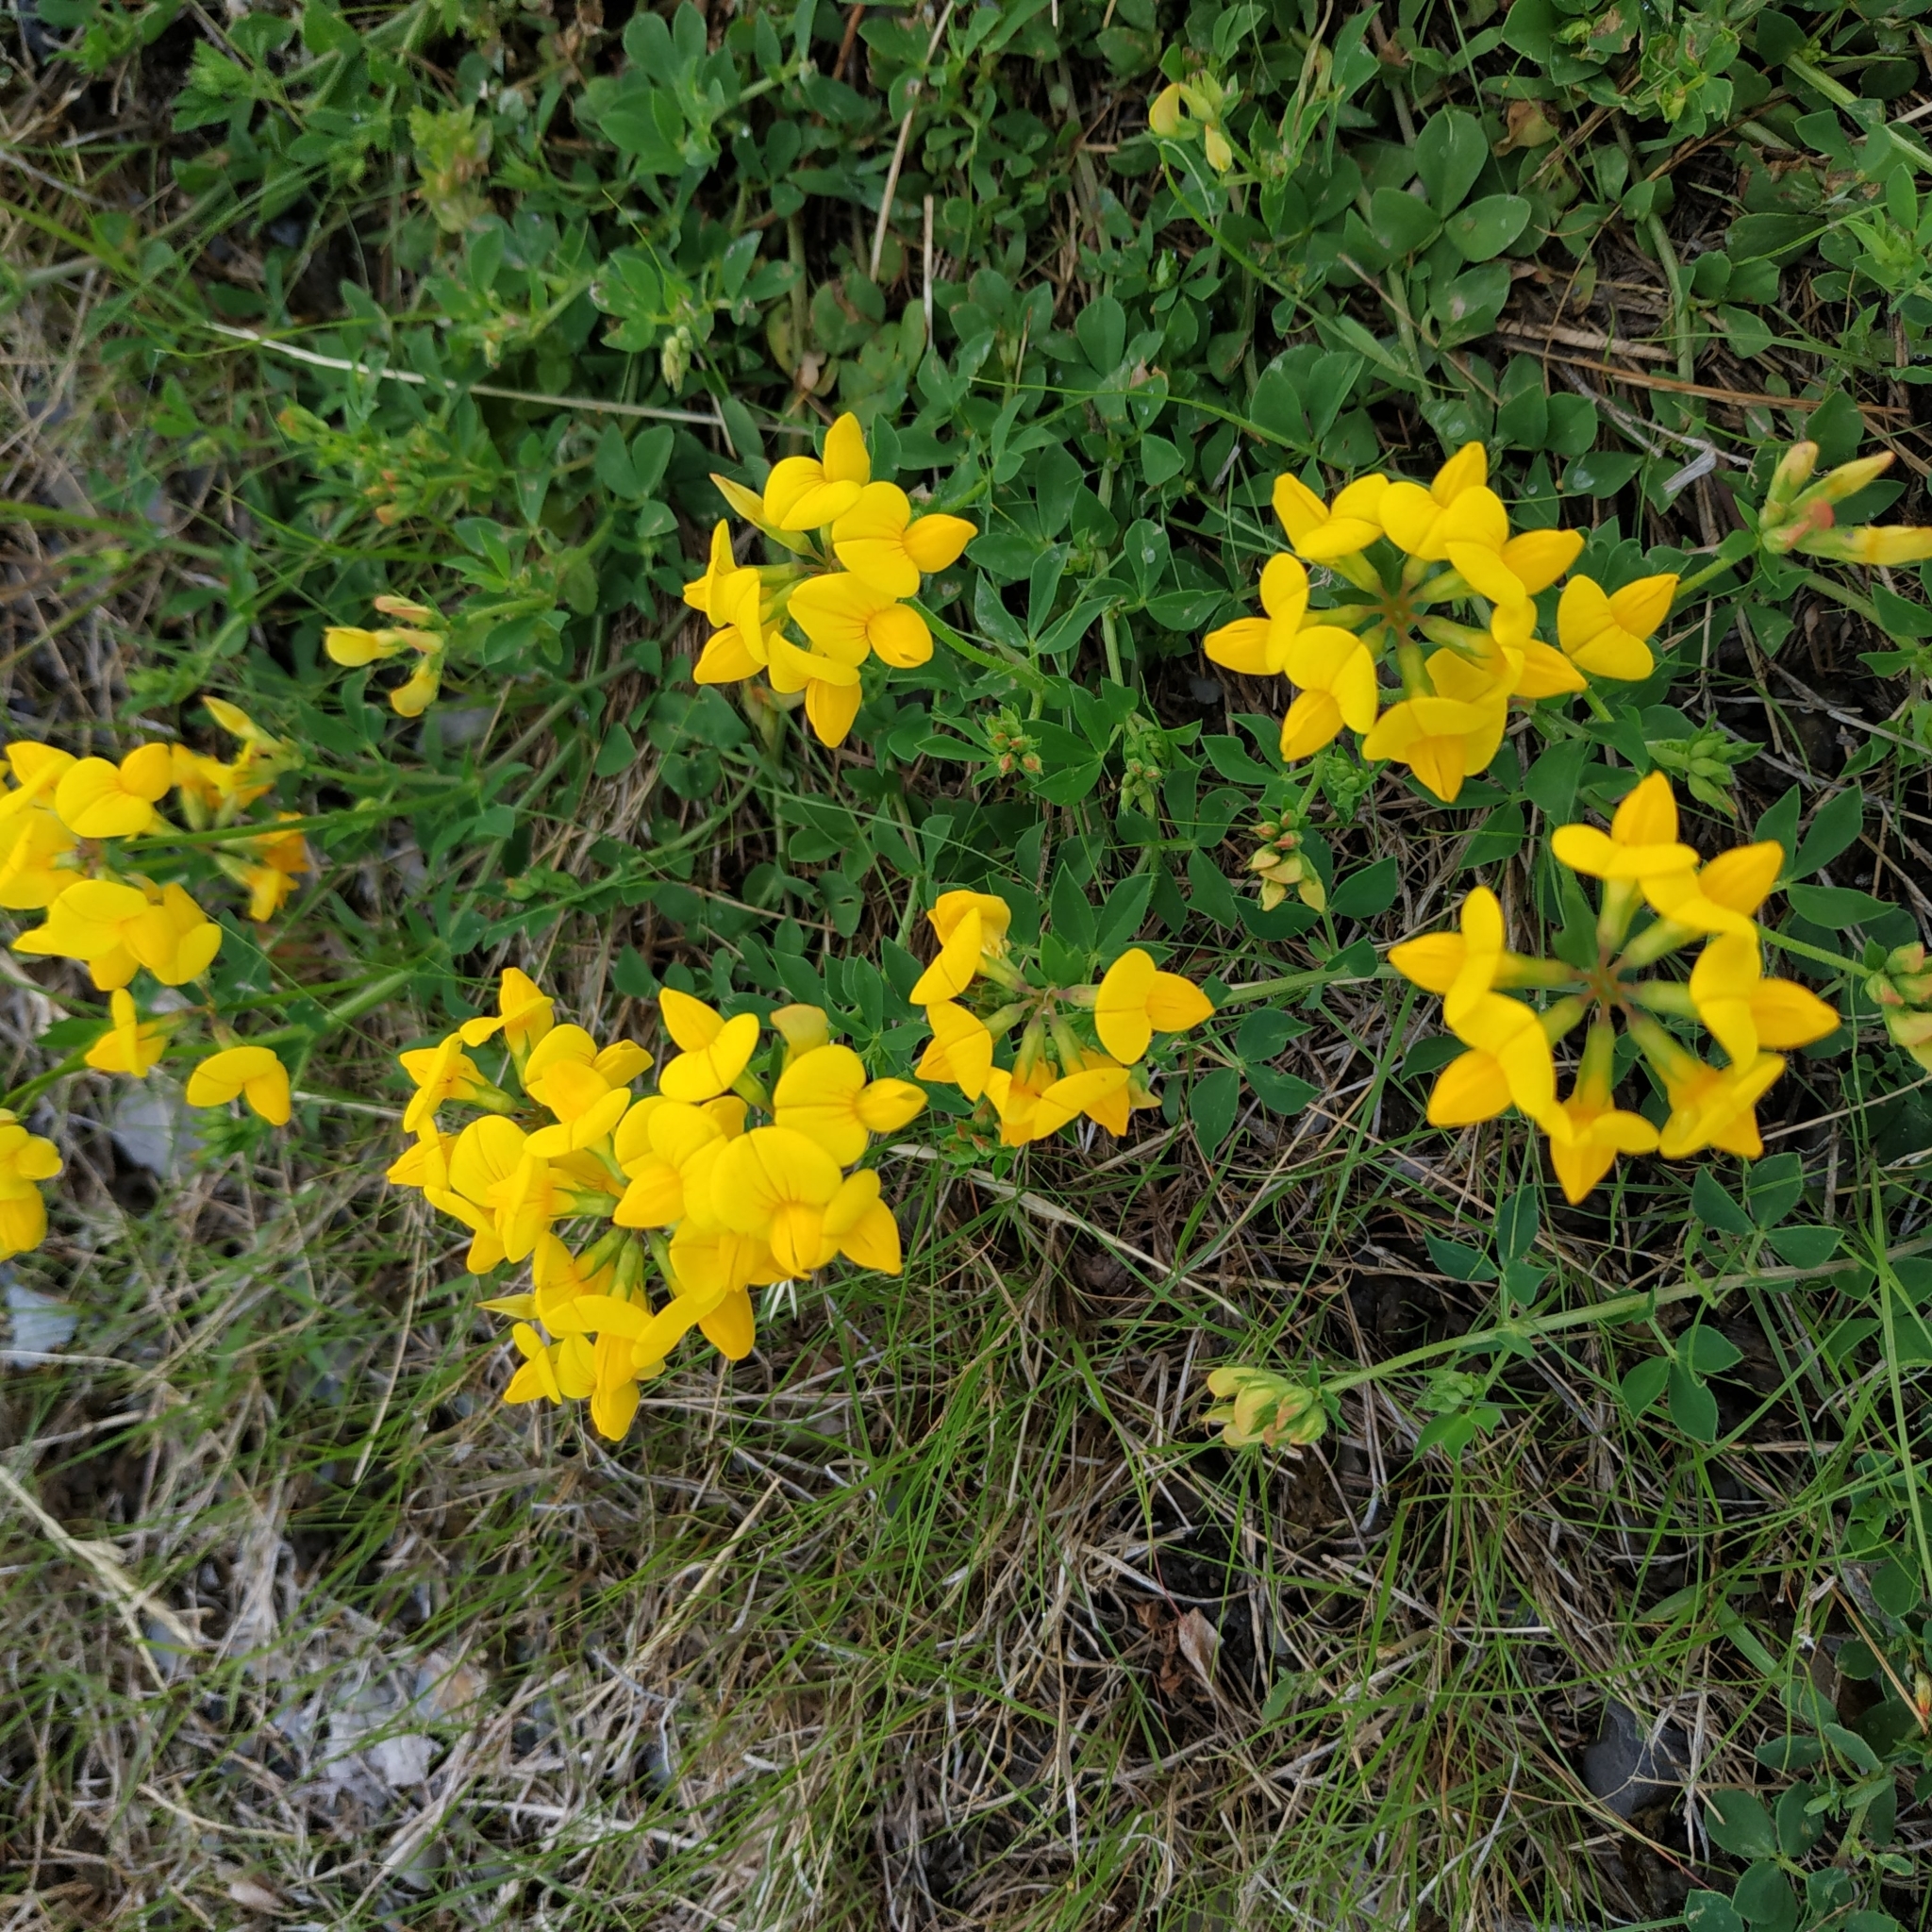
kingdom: Plantae
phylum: Tracheophyta
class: Magnoliopsida
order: Fabales
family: Fabaceae
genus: Lotus
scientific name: Lotus corniculatus
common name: Common bird's-foot-trefoil
